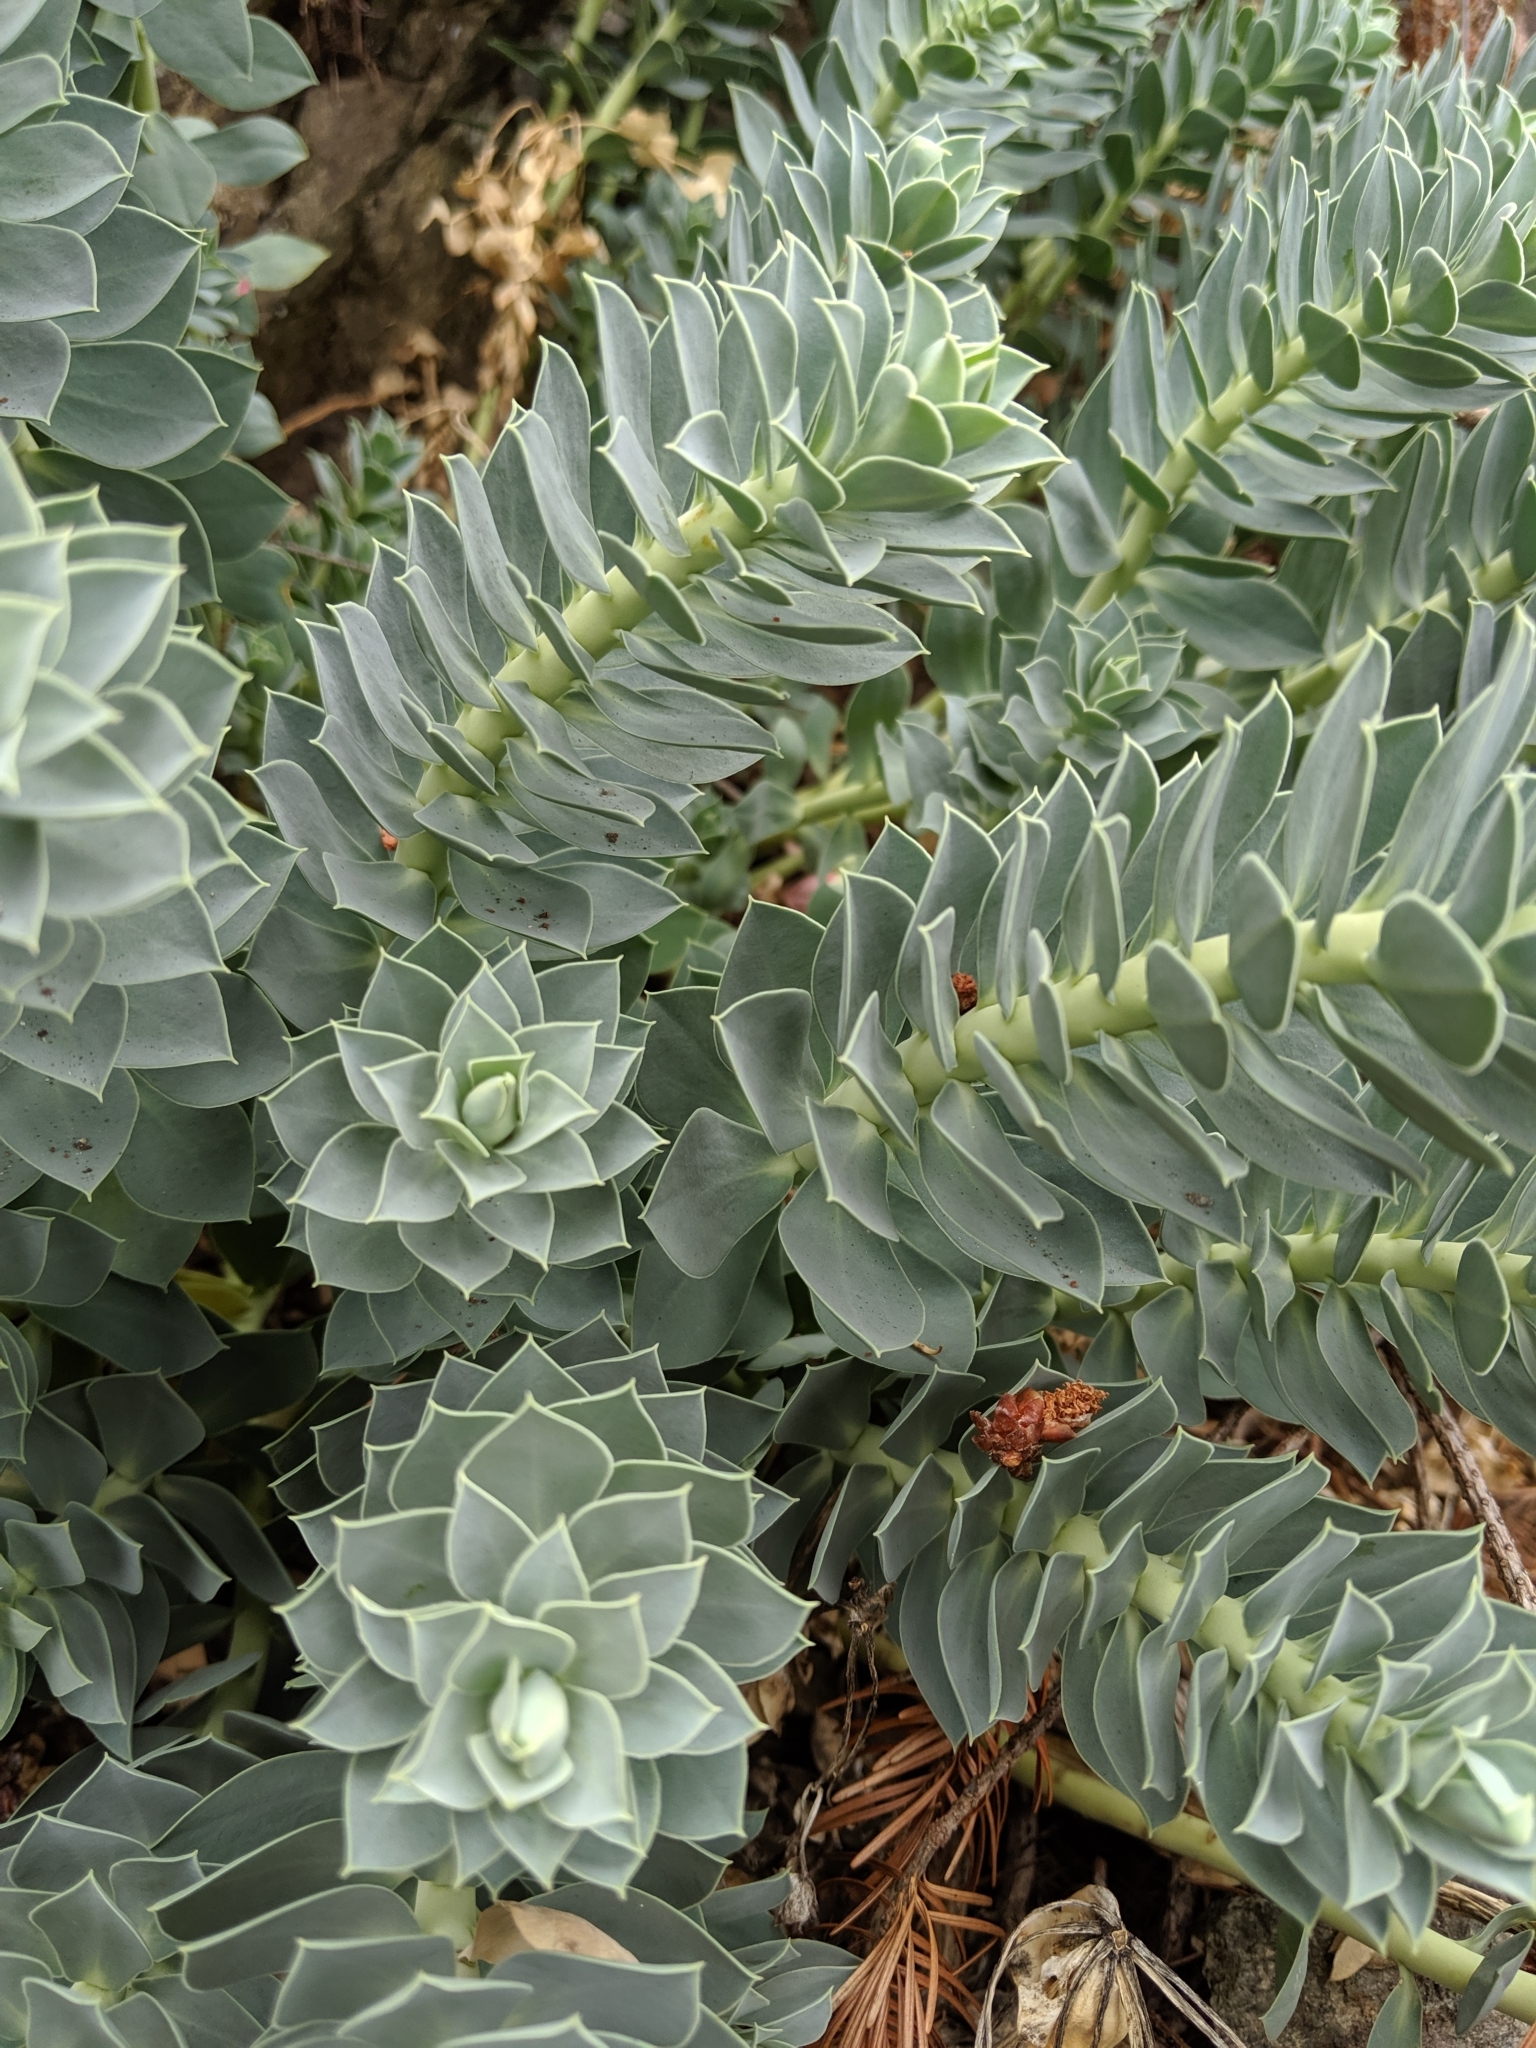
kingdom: Plantae
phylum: Tracheophyta
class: Magnoliopsida
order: Malpighiales
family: Euphorbiaceae
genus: Euphorbia
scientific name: Euphorbia myrsinites
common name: Myrtle spurge
